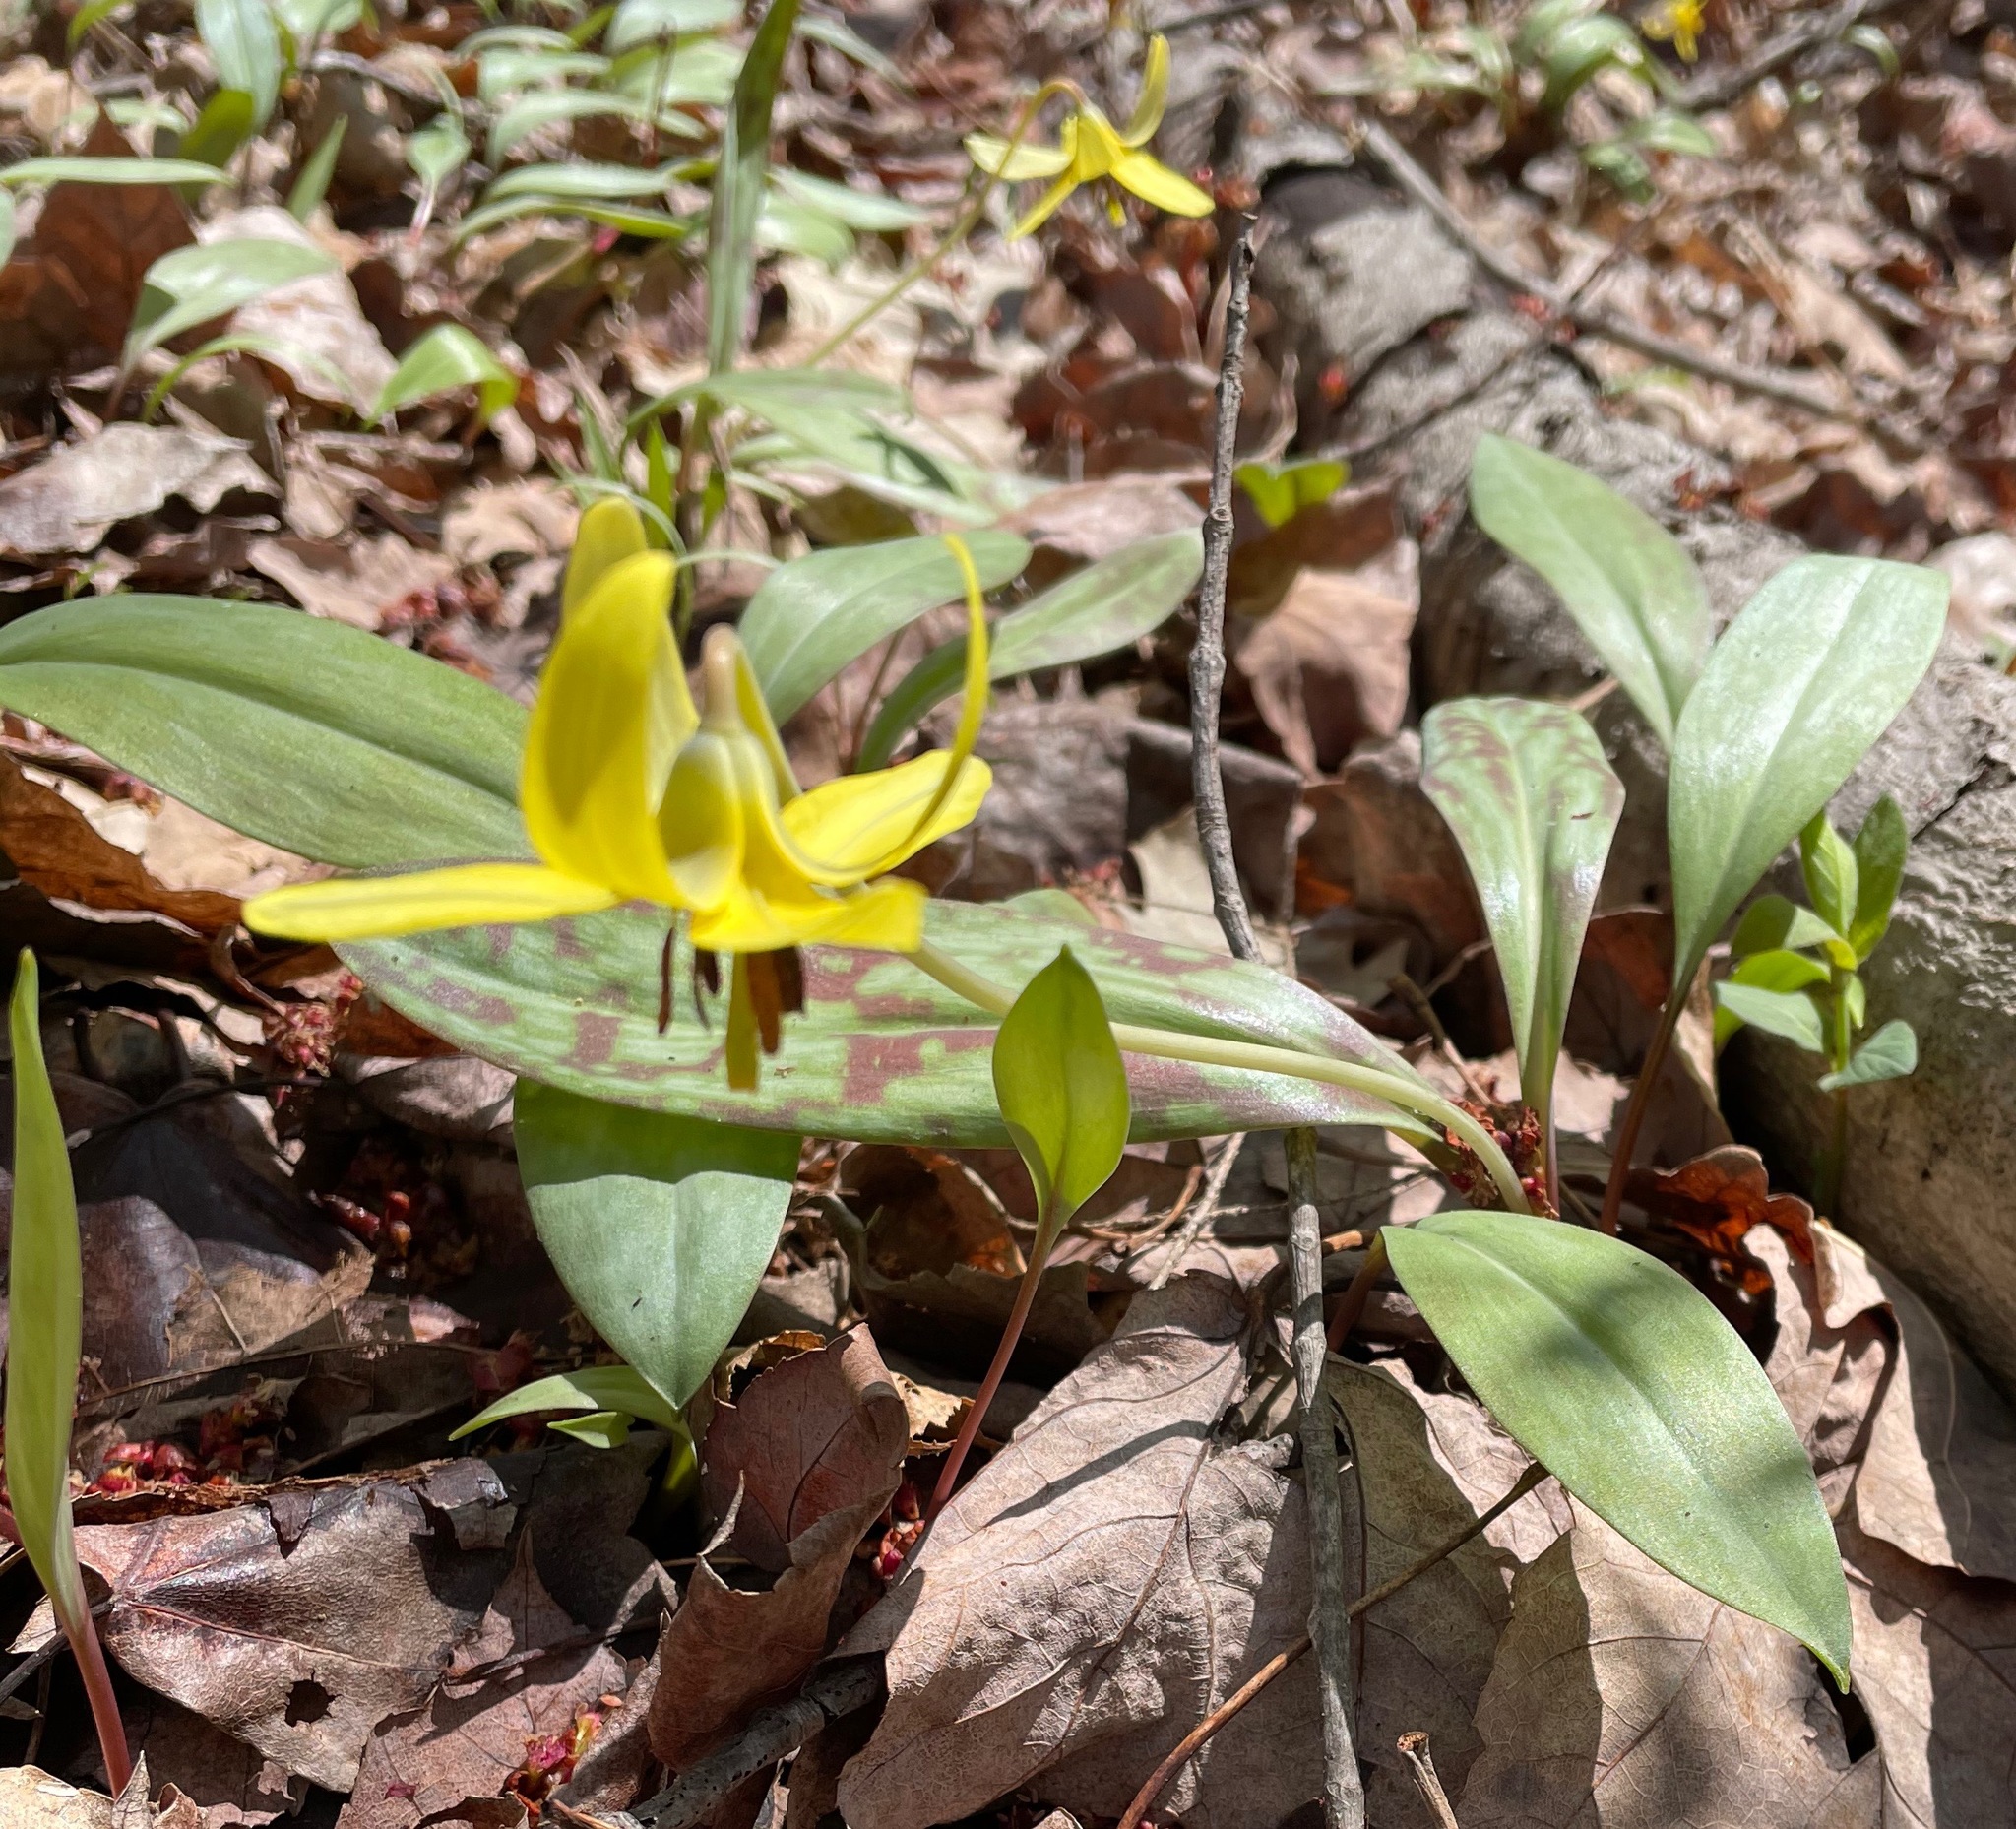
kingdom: Plantae
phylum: Tracheophyta
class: Liliopsida
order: Liliales
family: Liliaceae
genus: Erythronium
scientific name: Erythronium americanum
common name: Yellow adder's-tongue
